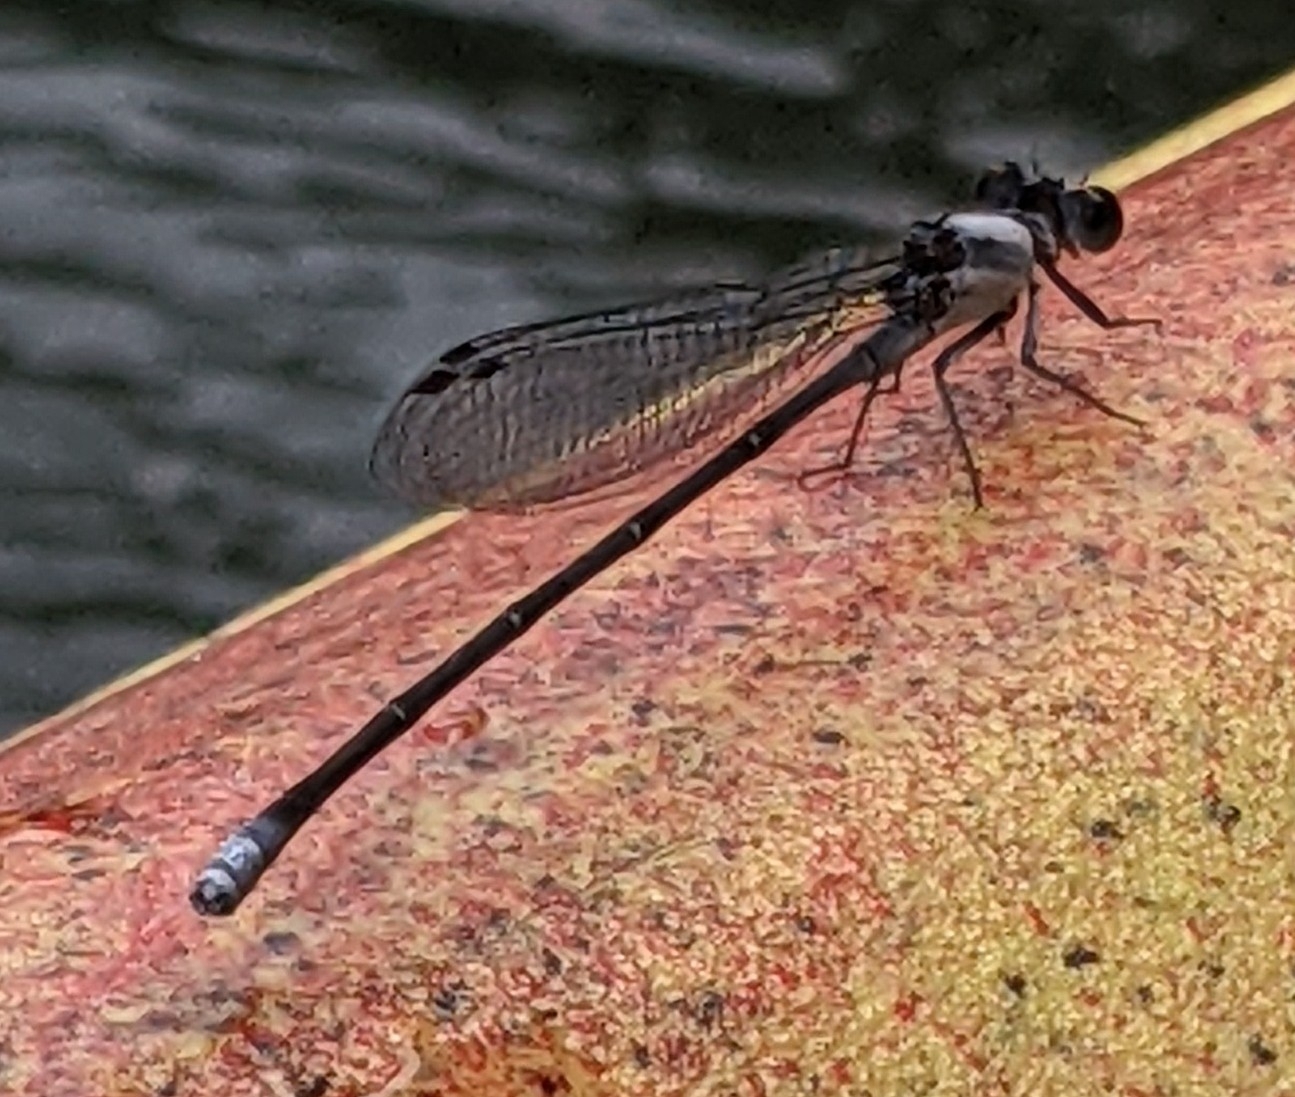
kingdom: Animalia
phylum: Arthropoda
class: Insecta
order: Odonata
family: Coenagrionidae
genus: Argia
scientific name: Argia moesta
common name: Powdered dancer
